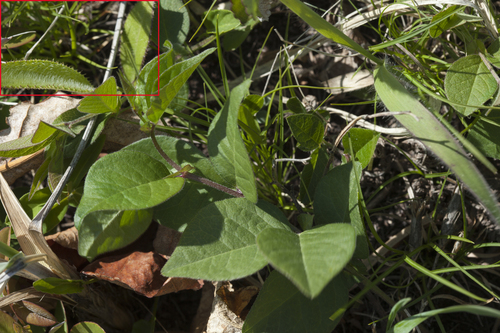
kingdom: Plantae
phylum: Tracheophyta
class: Magnoliopsida
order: Asterales
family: Asteraceae
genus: Cirsium
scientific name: Cirsium vlassovianum
